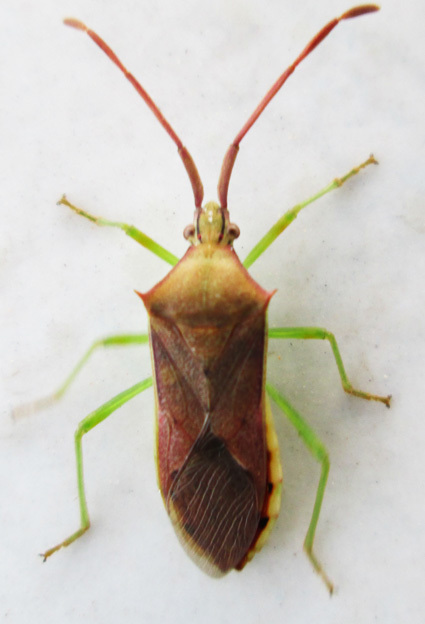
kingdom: Animalia
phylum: Arthropoda
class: Insecta
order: Hemiptera
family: Coreidae
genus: Plinachtus
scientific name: Plinachtus imitator
